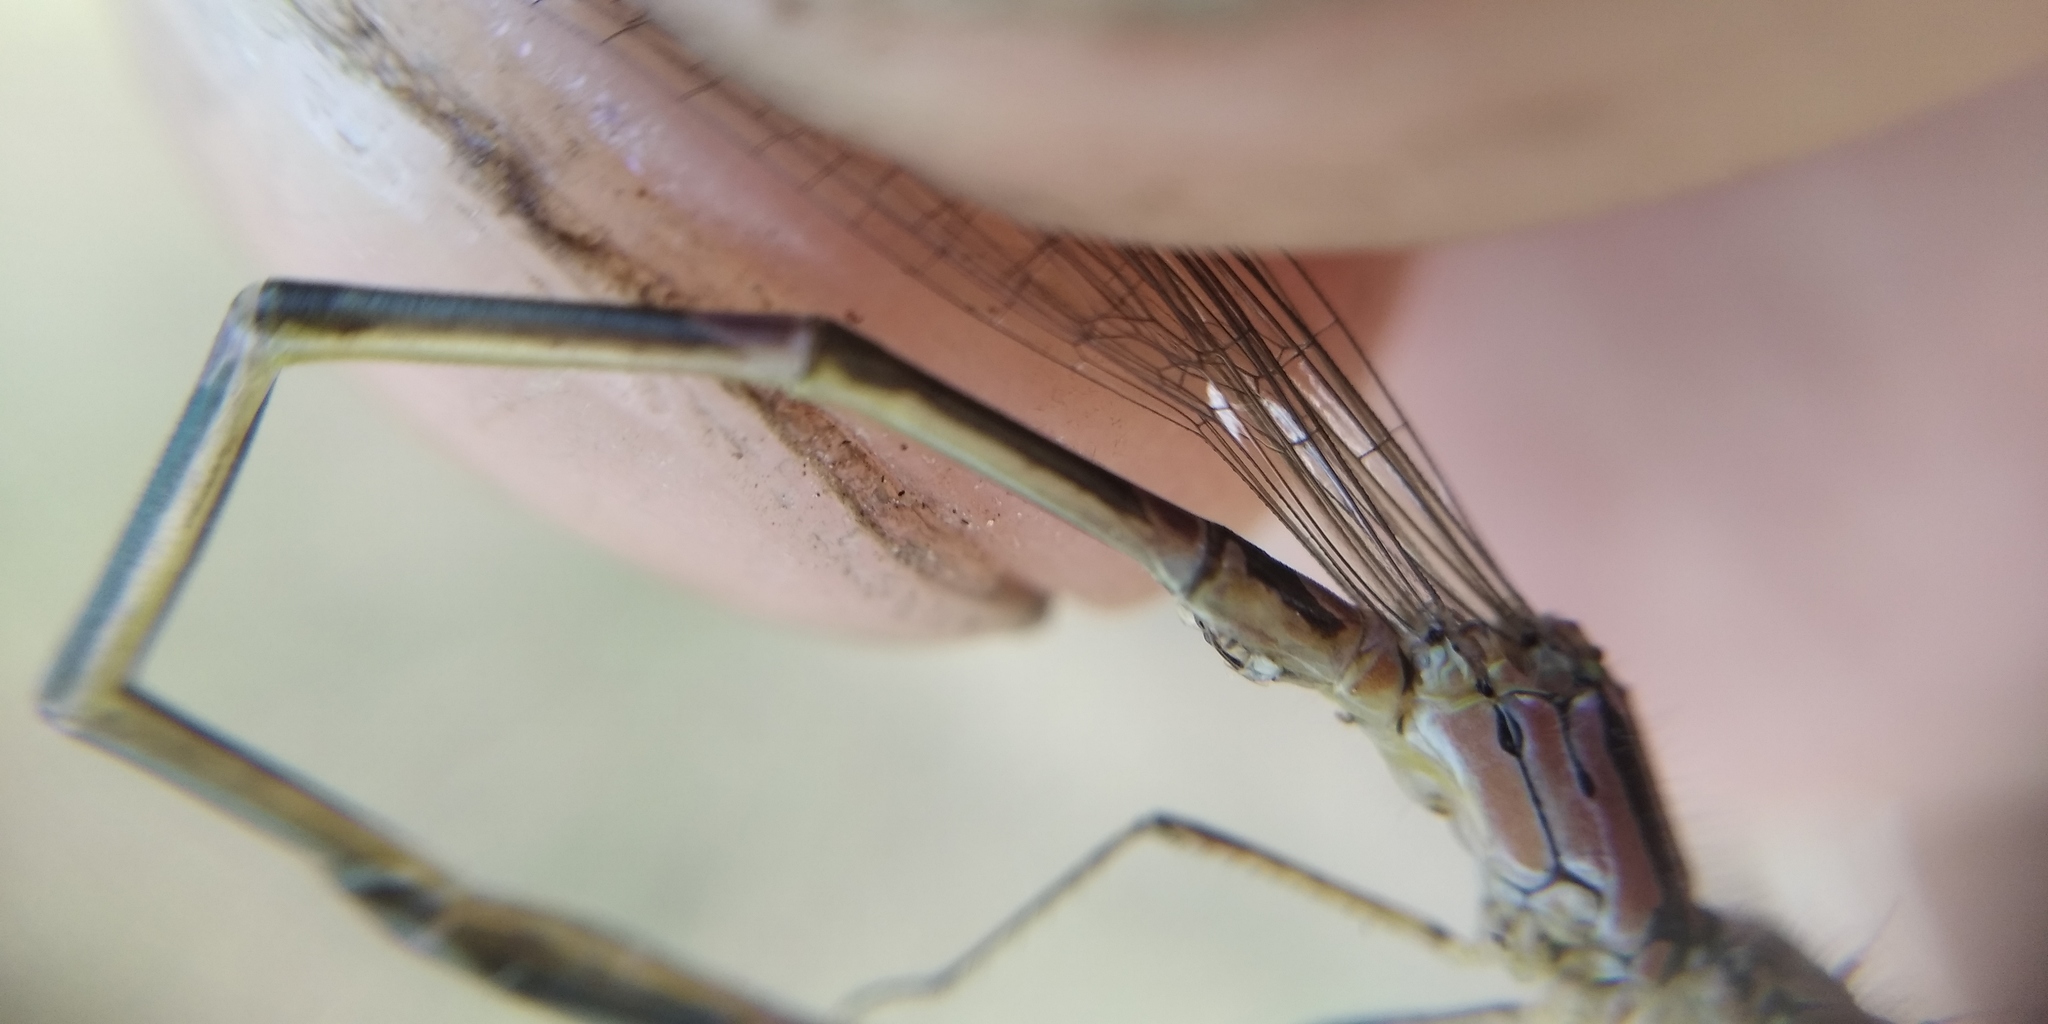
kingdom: Animalia
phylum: Arthropoda
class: Insecta
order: Odonata
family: Coenagrionidae
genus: Coenagrion
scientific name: Coenagrion pulchellum
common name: Variable bluet
